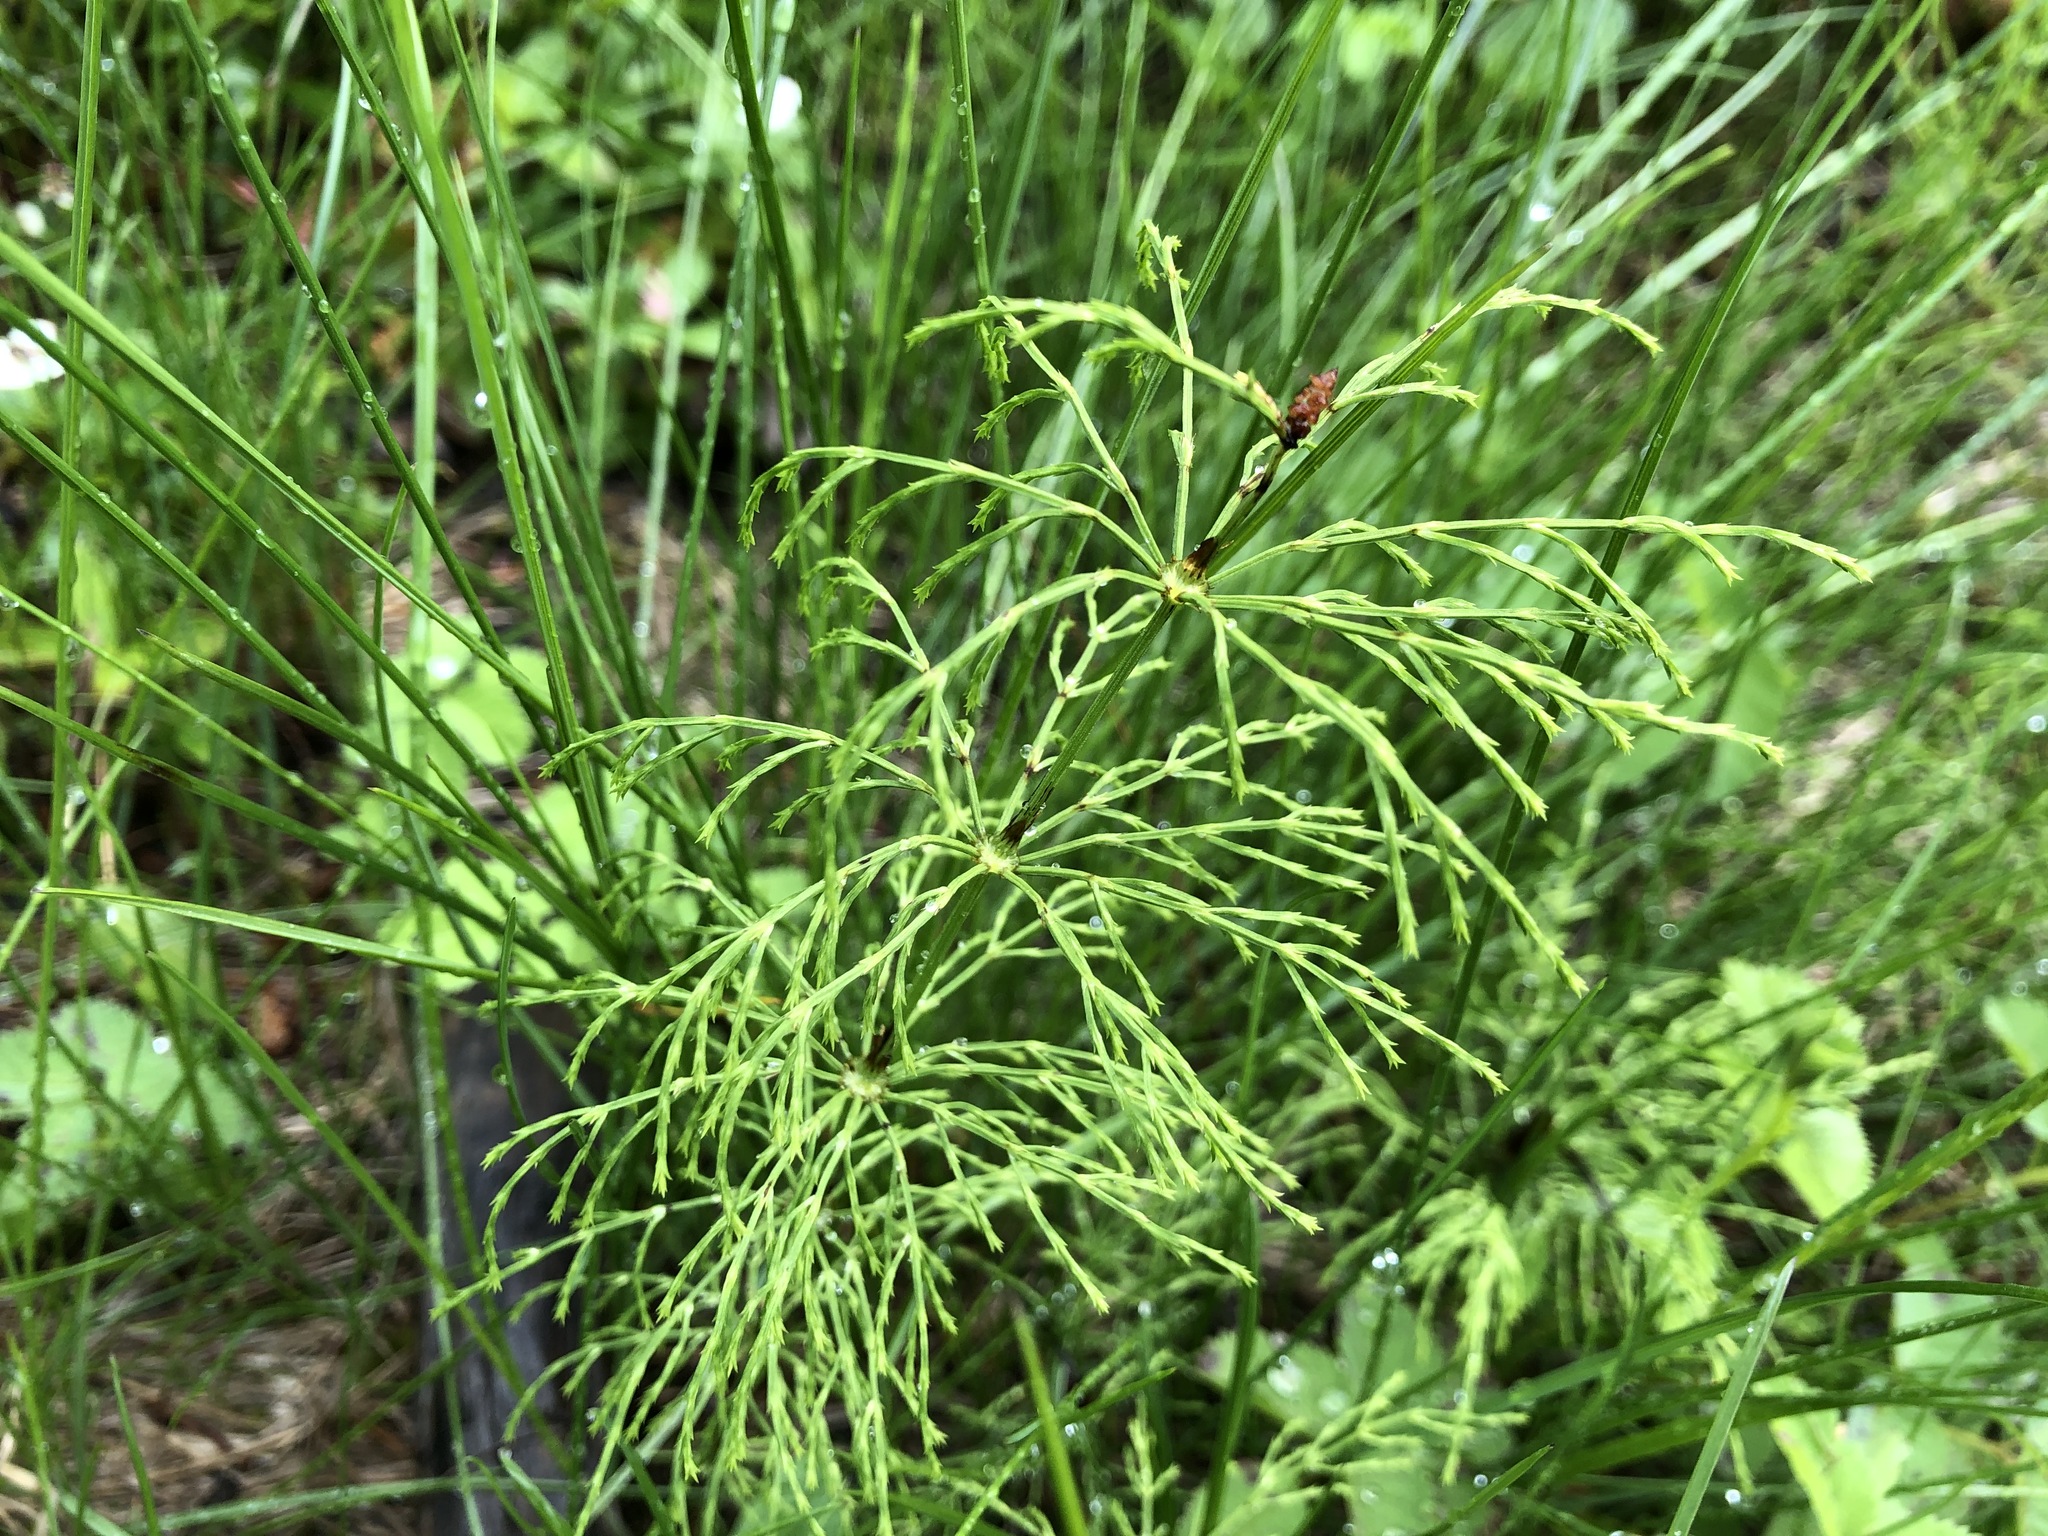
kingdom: Plantae
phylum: Tracheophyta
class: Polypodiopsida
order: Equisetales
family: Equisetaceae
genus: Equisetum
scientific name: Equisetum sylvaticum
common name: Wood horsetail
